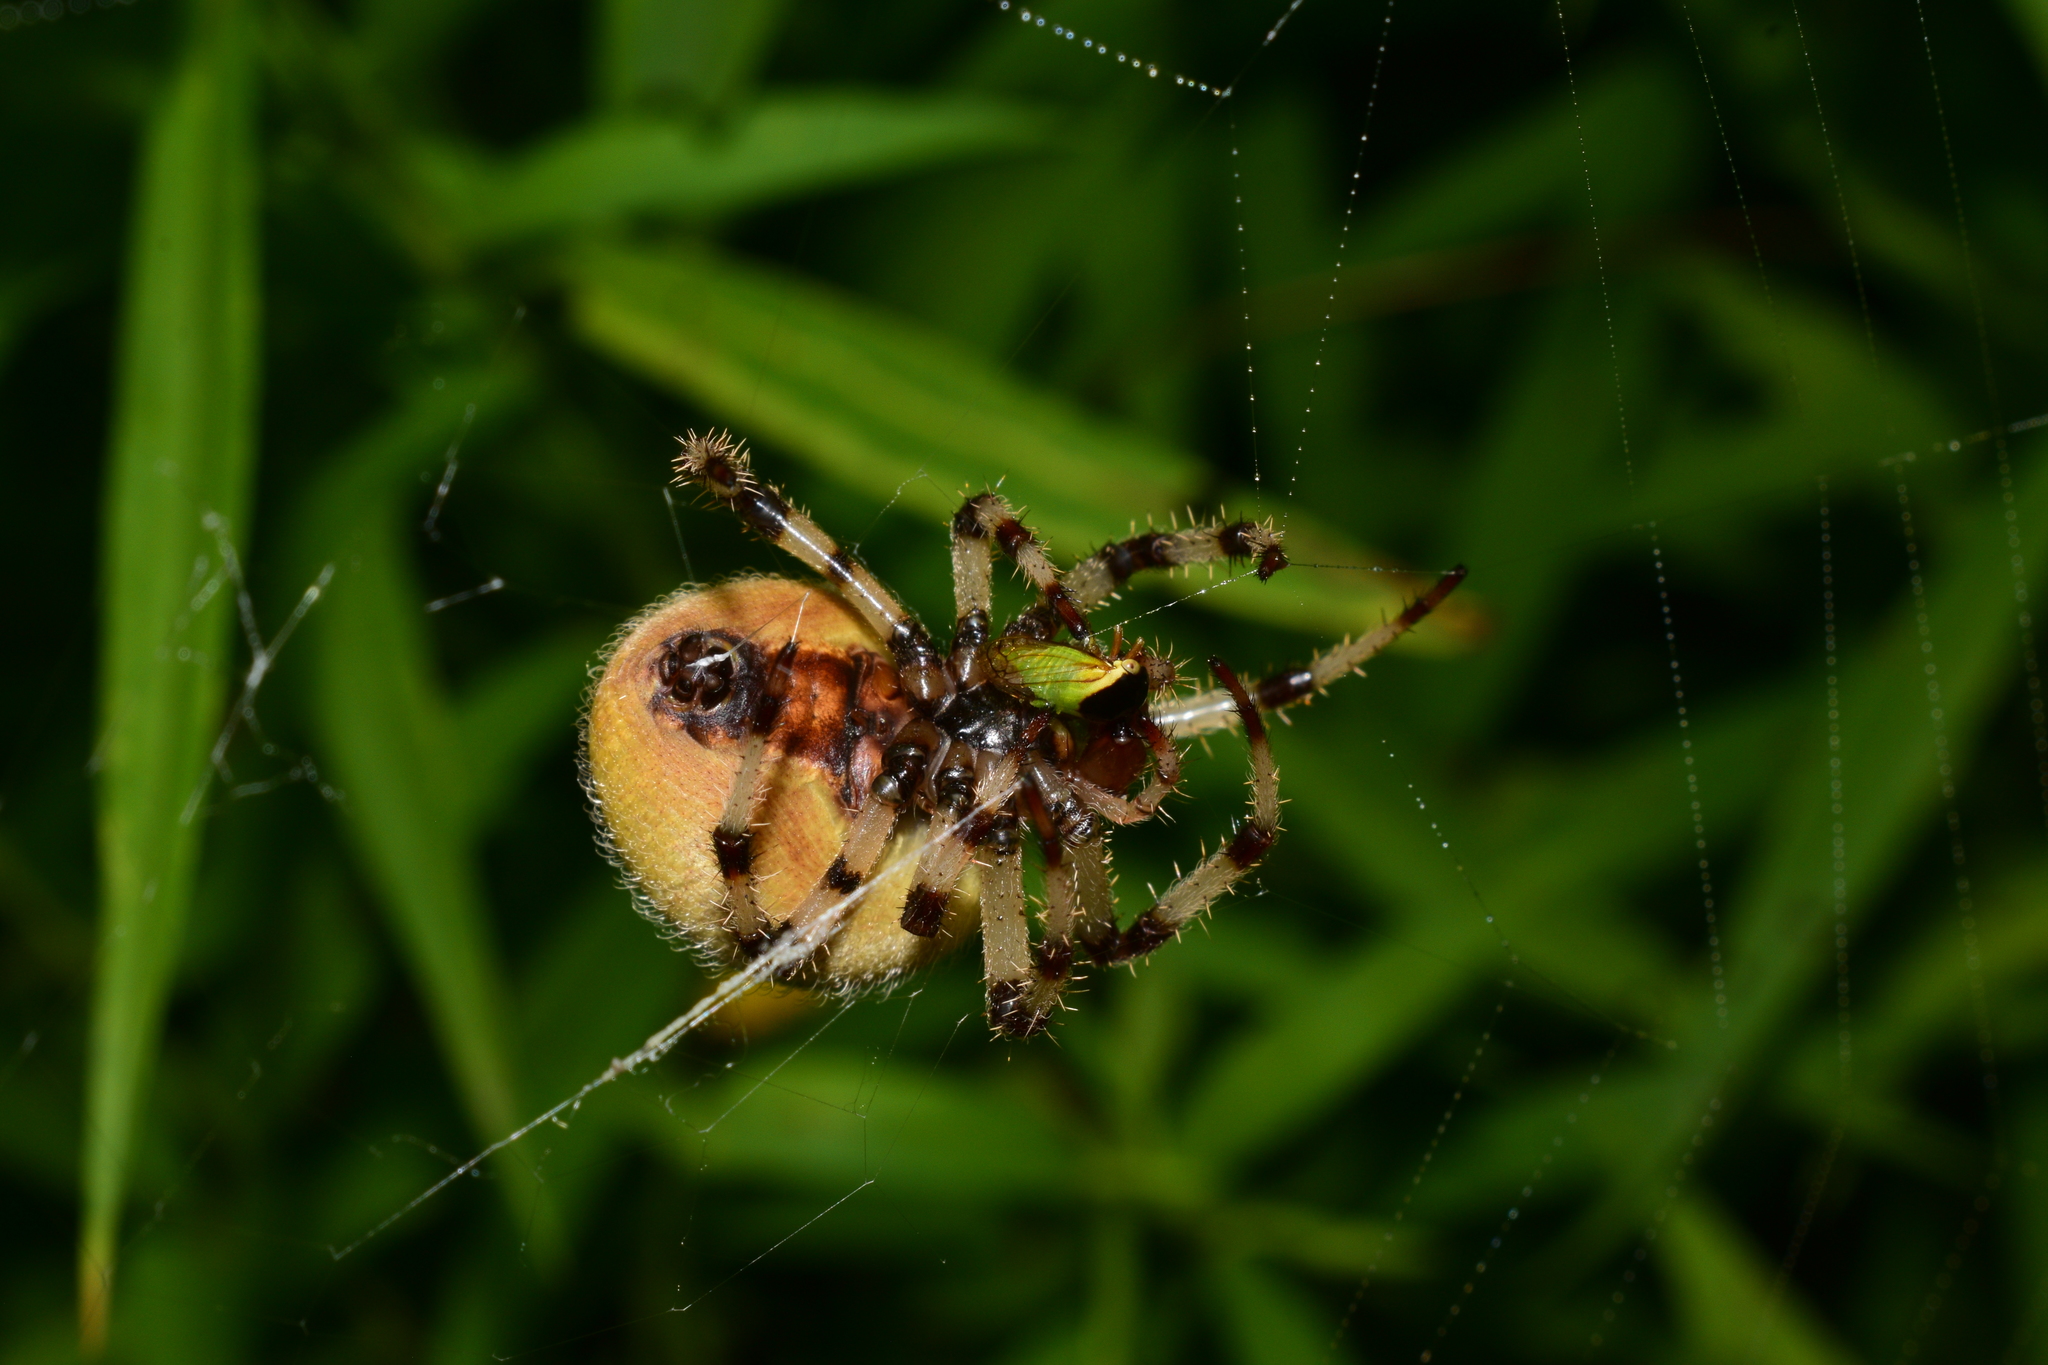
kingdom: Animalia
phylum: Arthropoda
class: Arachnida
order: Araneae
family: Araneidae
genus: Araneus
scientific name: Araneus trifolium
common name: Shamrock orbweaver
